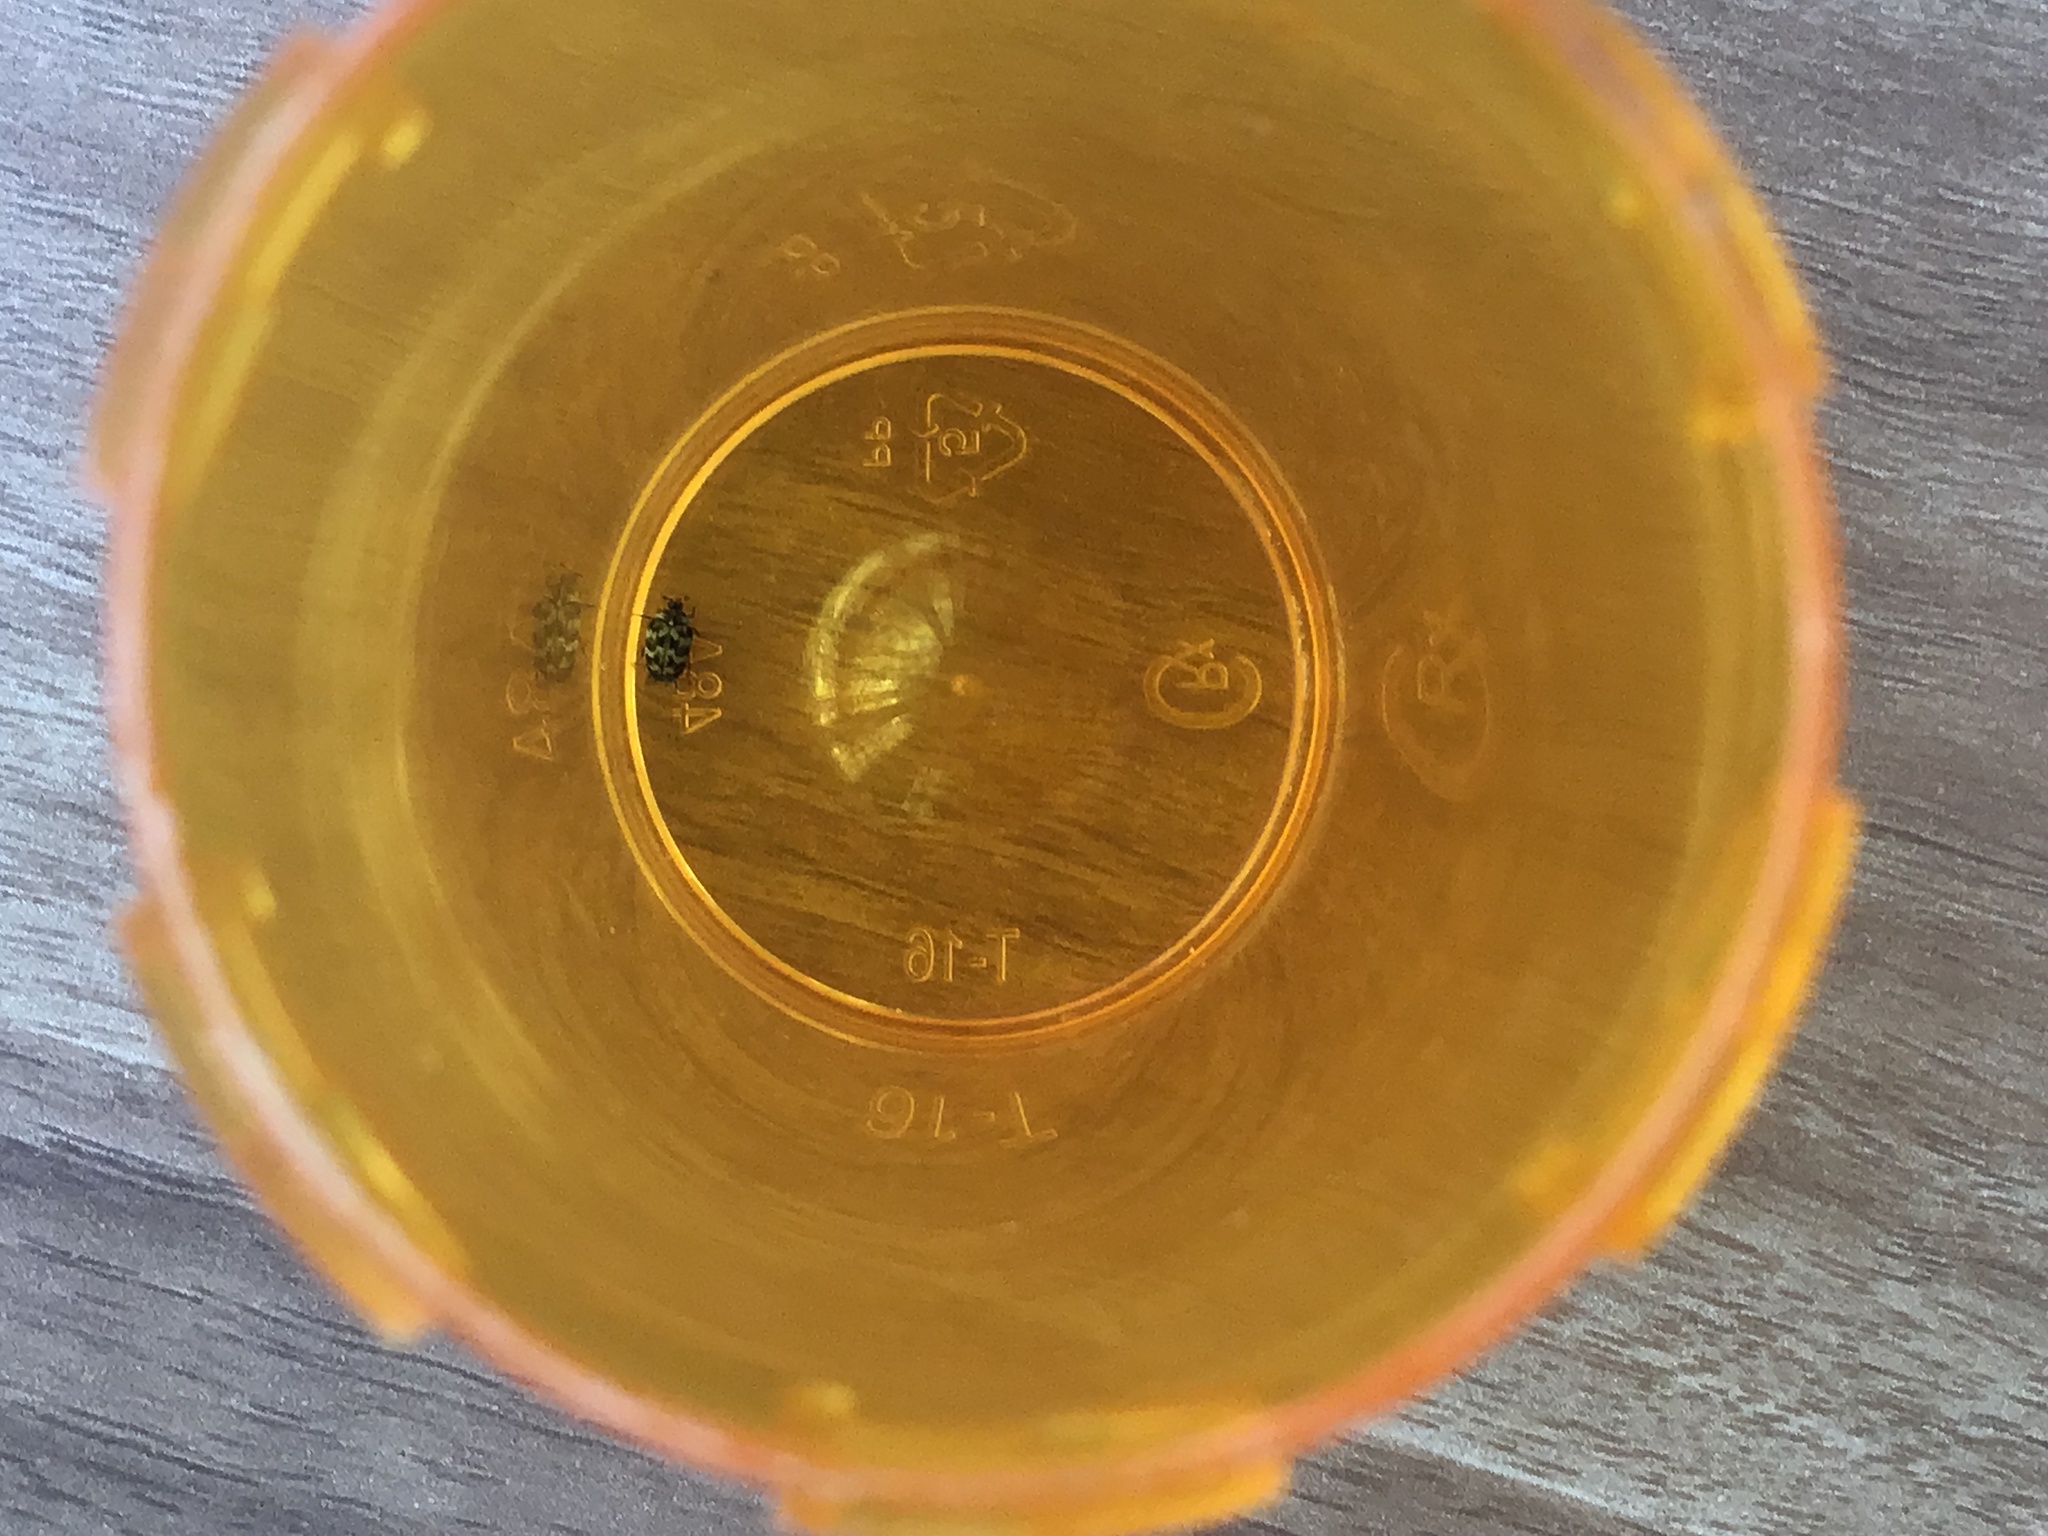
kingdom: Animalia
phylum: Arthropoda
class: Insecta
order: Coleoptera
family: Dermestidae
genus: Anthrenus
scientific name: Anthrenus verbasci
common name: Varied carpet beetle
